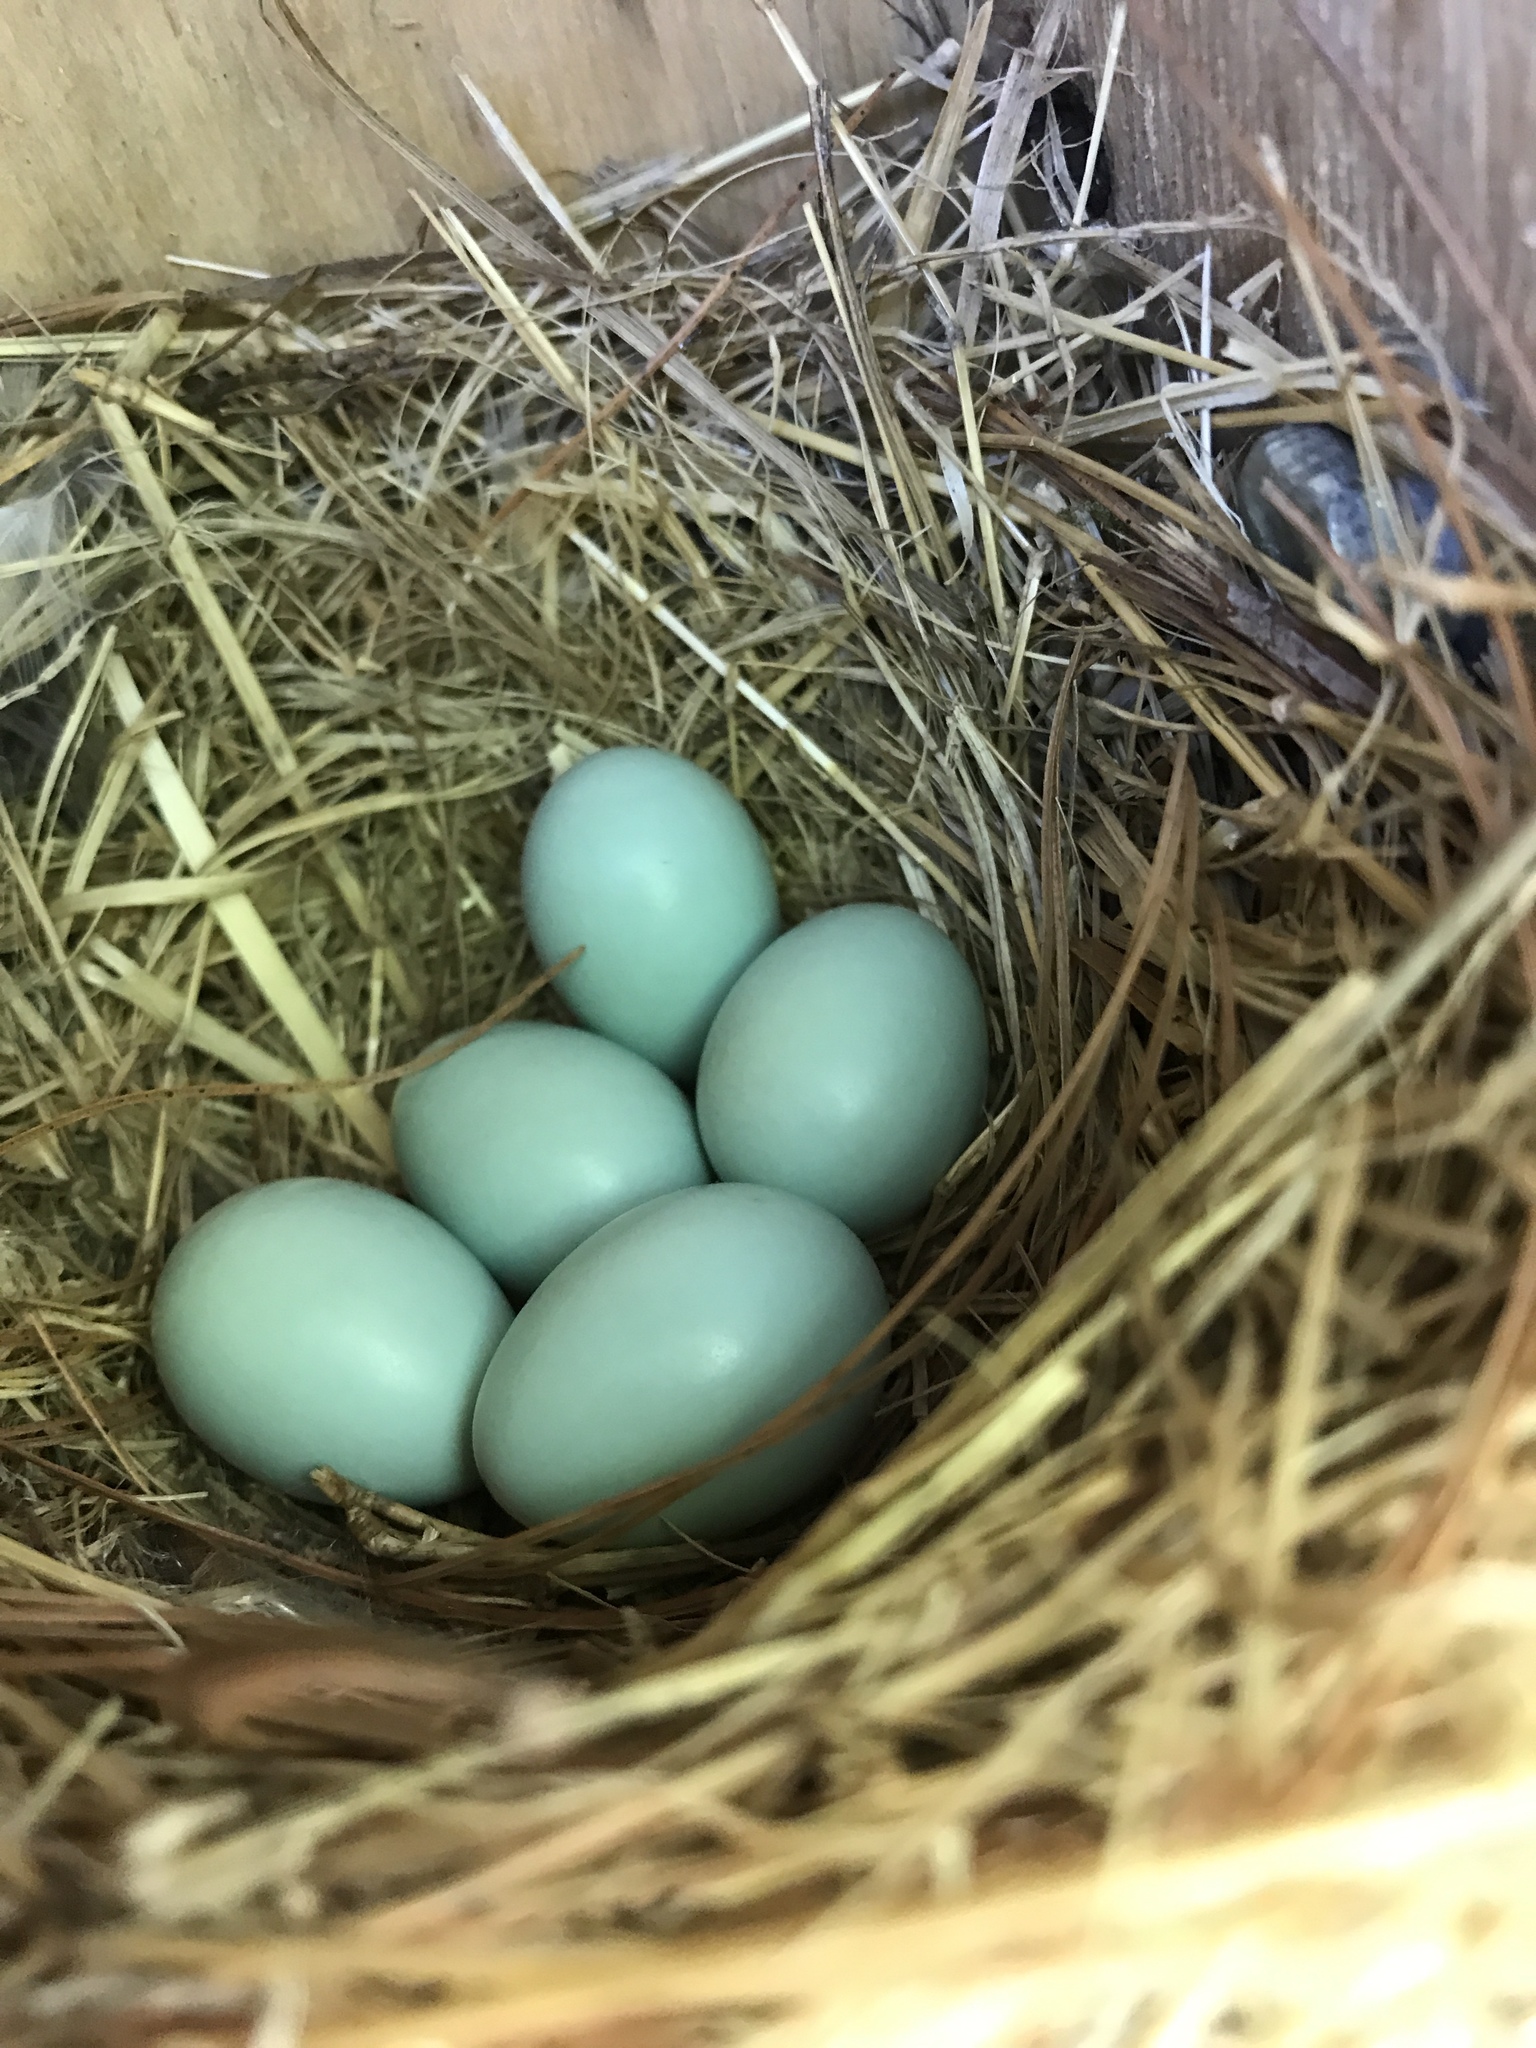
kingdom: Animalia
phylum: Chordata
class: Aves
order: Passeriformes
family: Turdidae
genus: Sialia
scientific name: Sialia sialis
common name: Eastern bluebird
